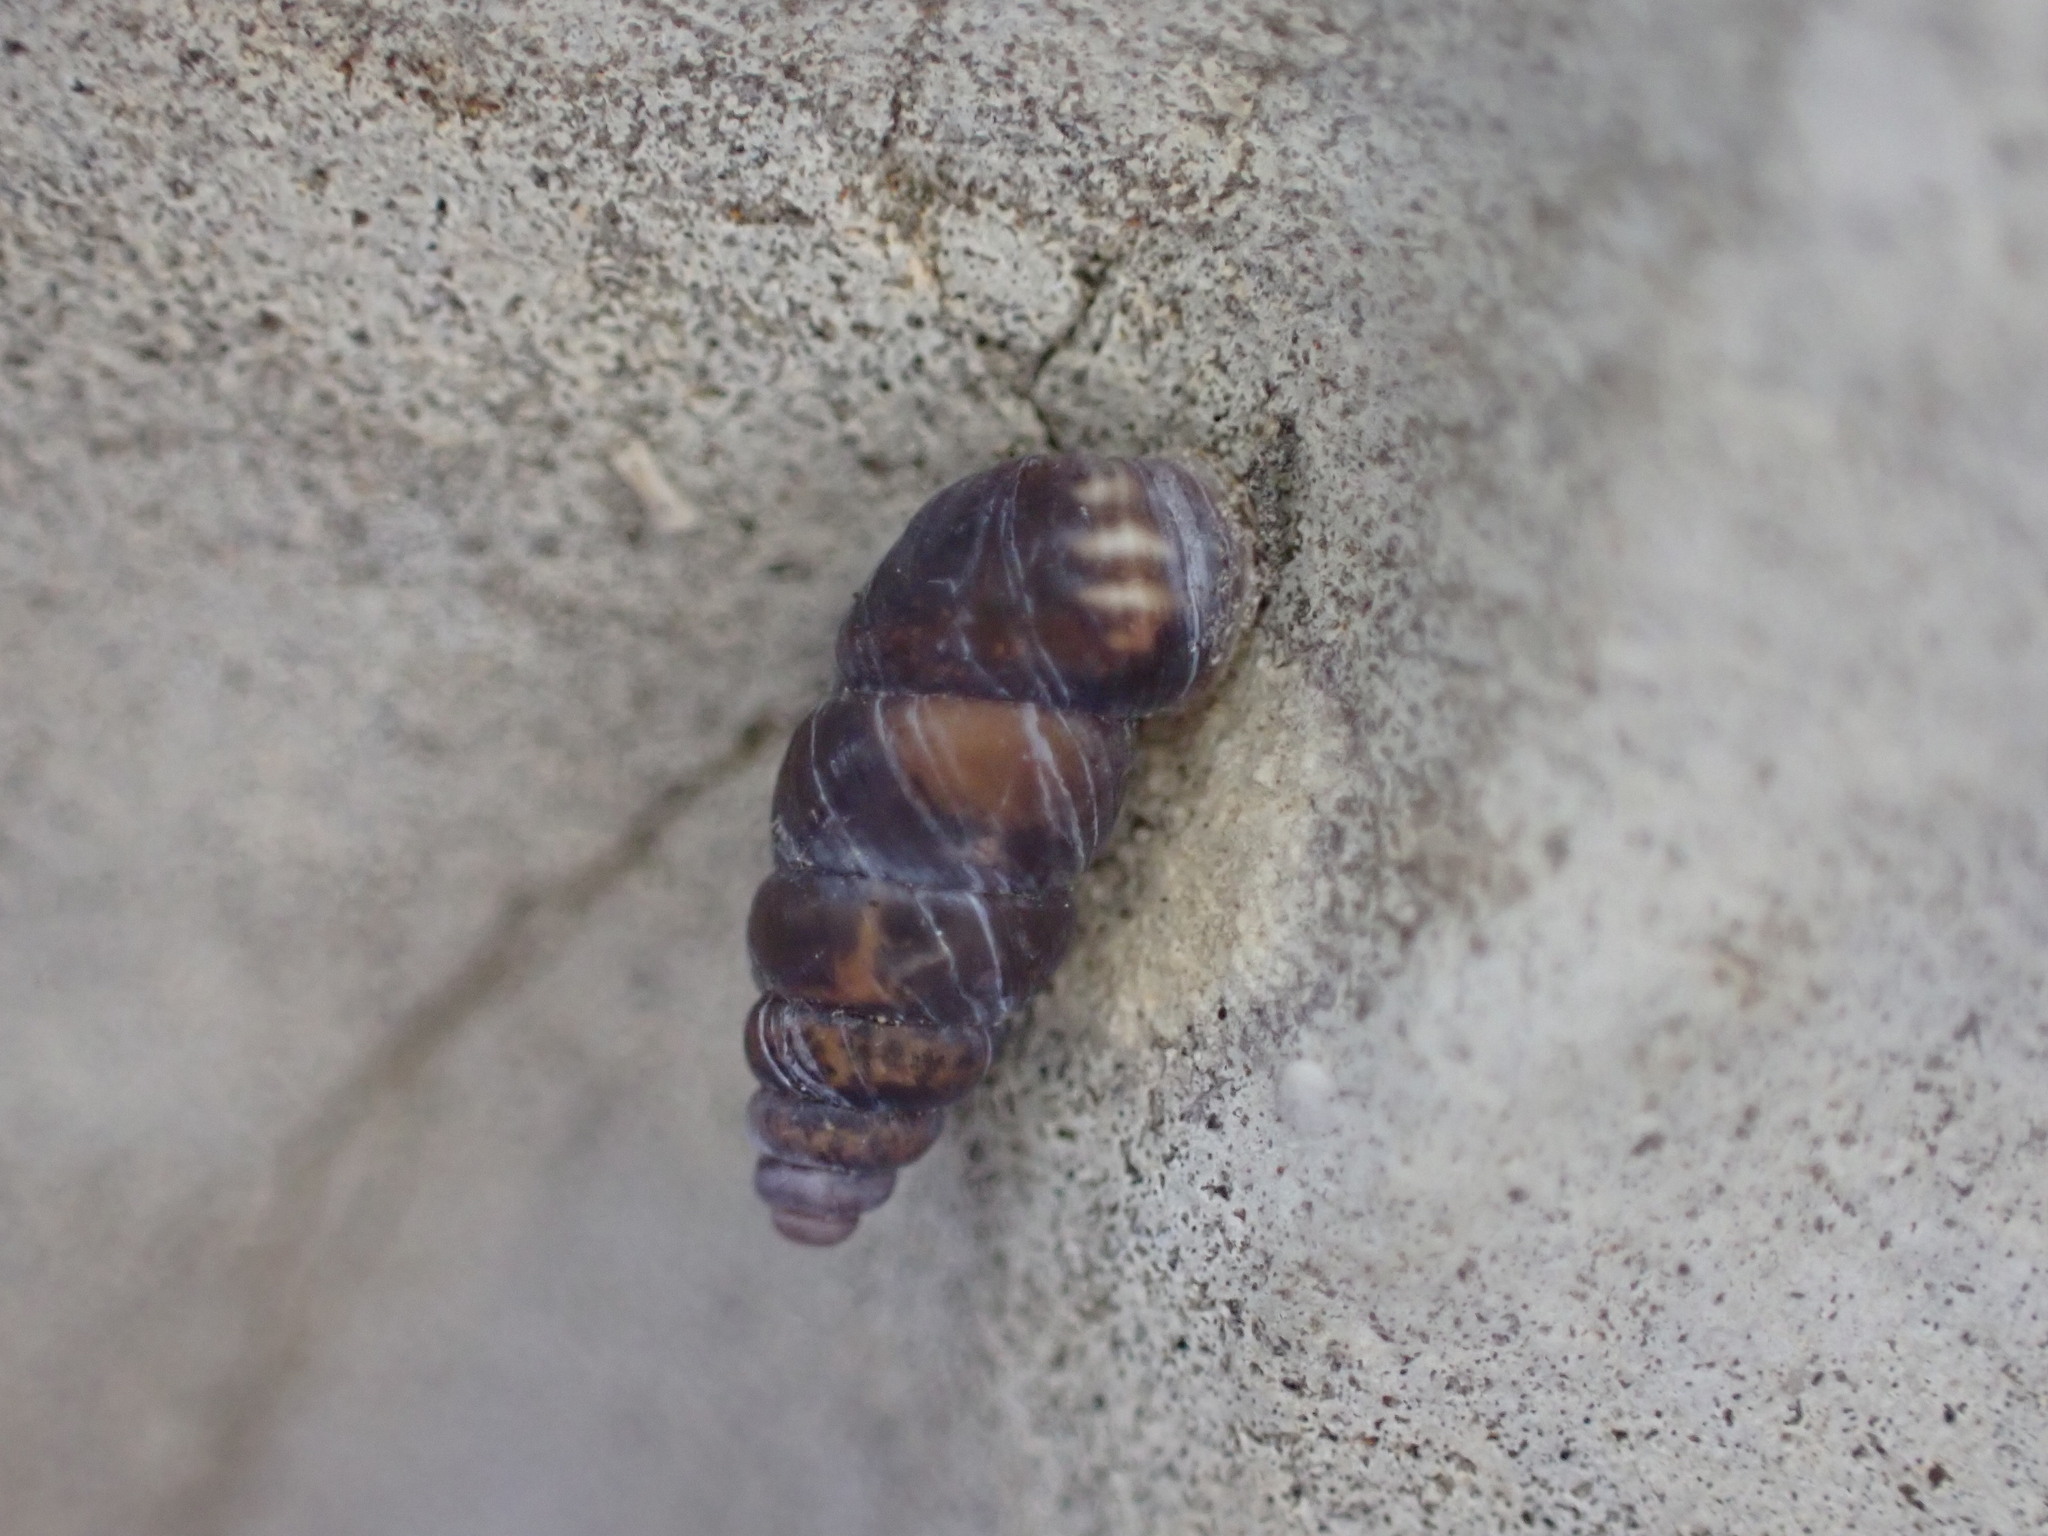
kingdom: Animalia
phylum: Mollusca
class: Gastropoda
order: Stylommatophora
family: Chondrinidae
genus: Chondrina
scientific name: Chondrina avenacea
